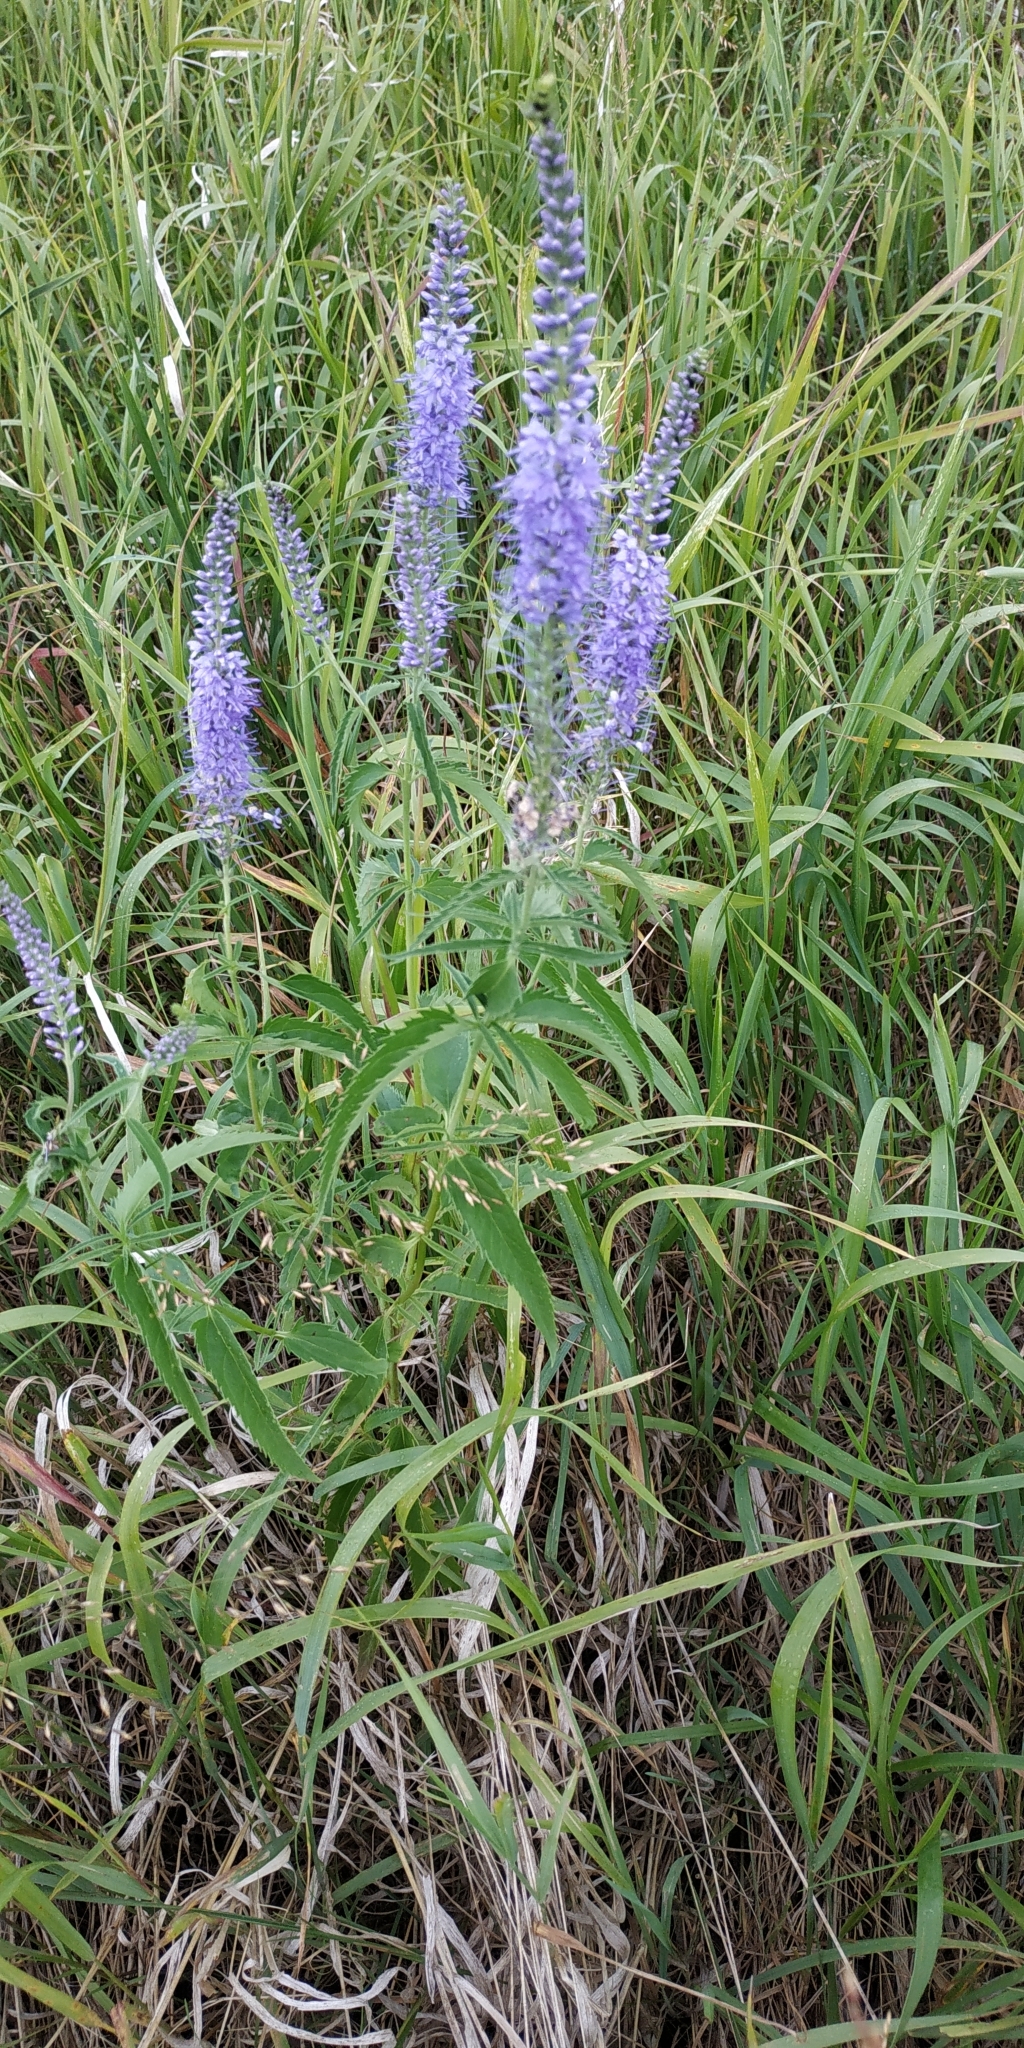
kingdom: Plantae
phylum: Tracheophyta
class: Magnoliopsida
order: Lamiales
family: Plantaginaceae
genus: Veronica
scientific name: Veronica longifolia
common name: Garden speedwell
